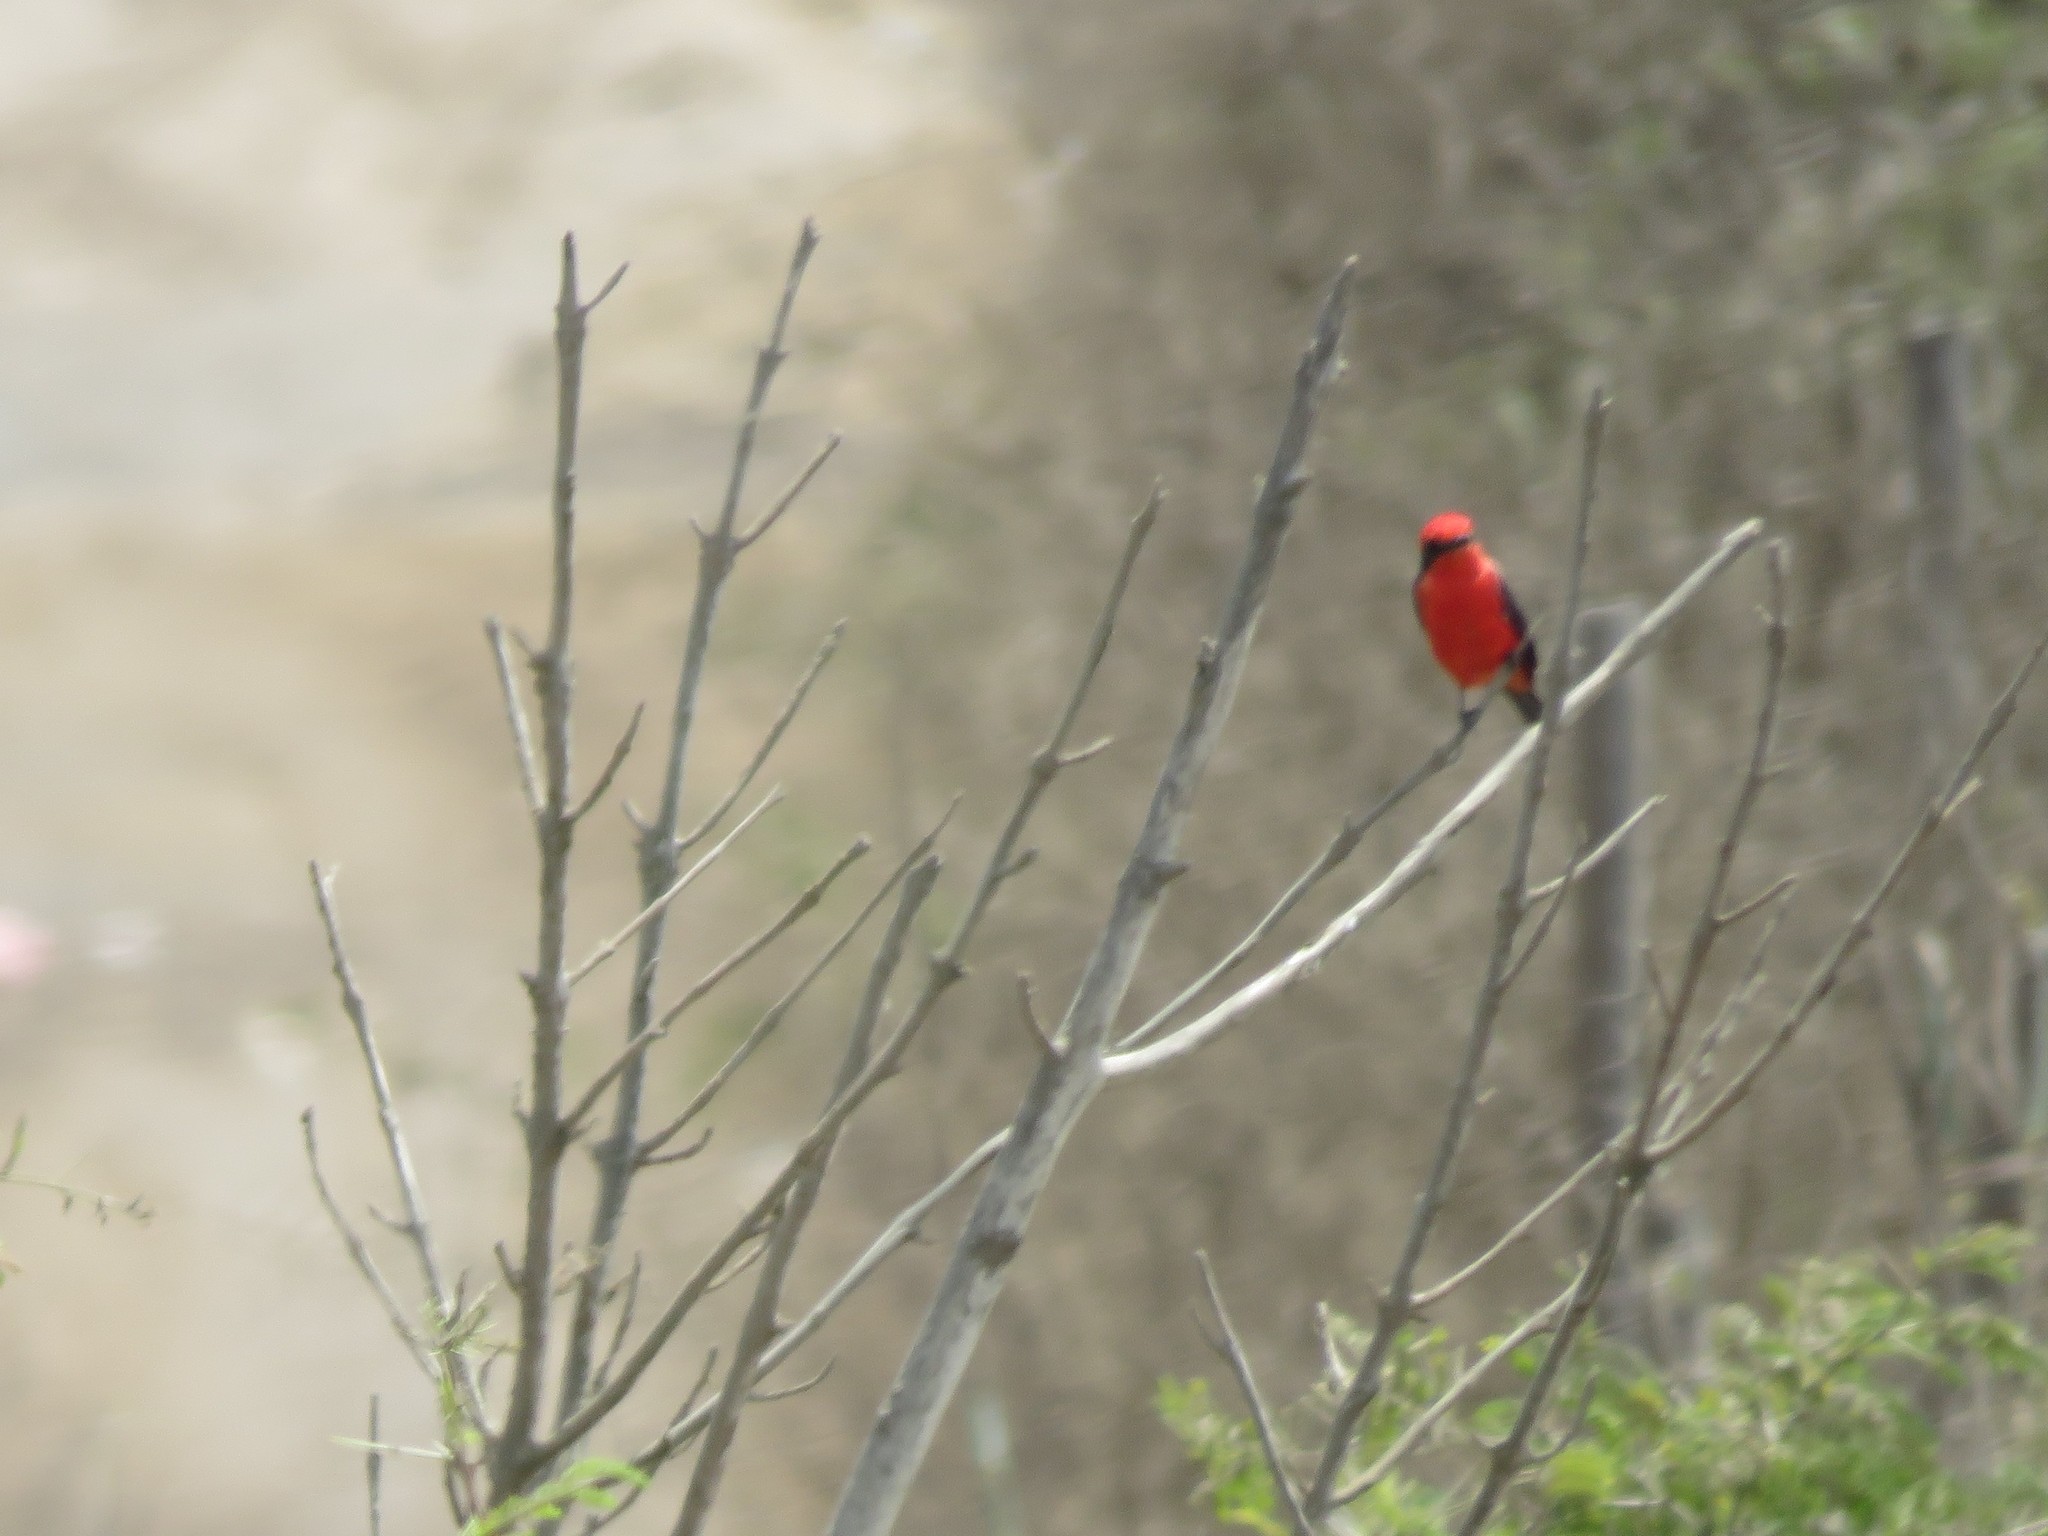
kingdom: Animalia
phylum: Chordata
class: Aves
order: Passeriformes
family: Tyrannidae
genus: Pyrocephalus
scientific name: Pyrocephalus rubinus
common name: Vermilion flycatcher
